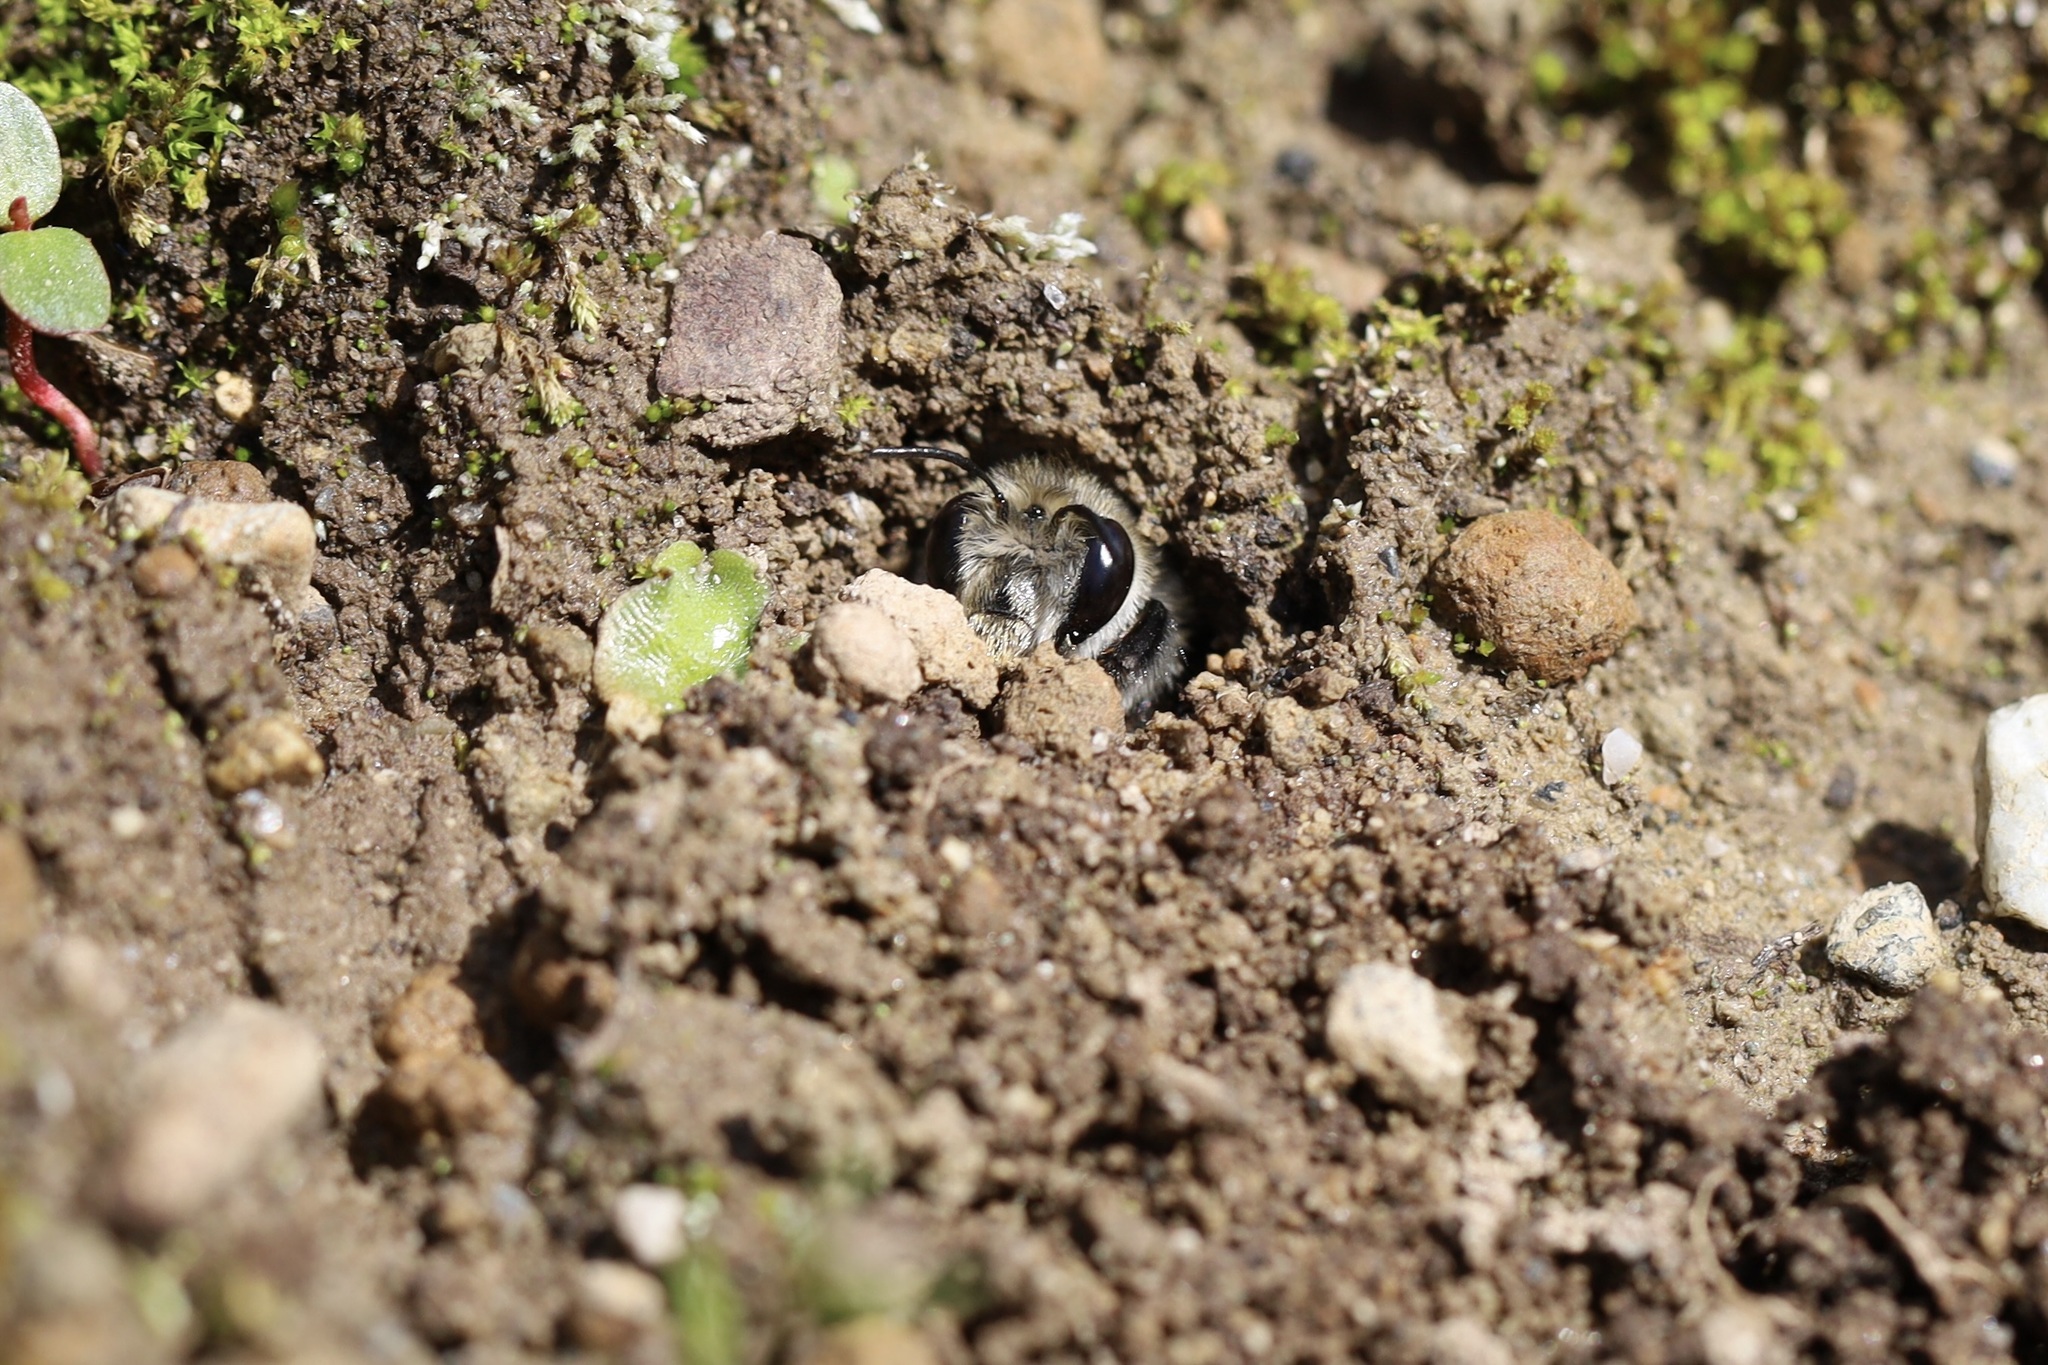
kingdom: Animalia
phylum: Arthropoda
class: Insecta
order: Hymenoptera
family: Apidae
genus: Anthophora
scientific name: Anthophora pacifica
